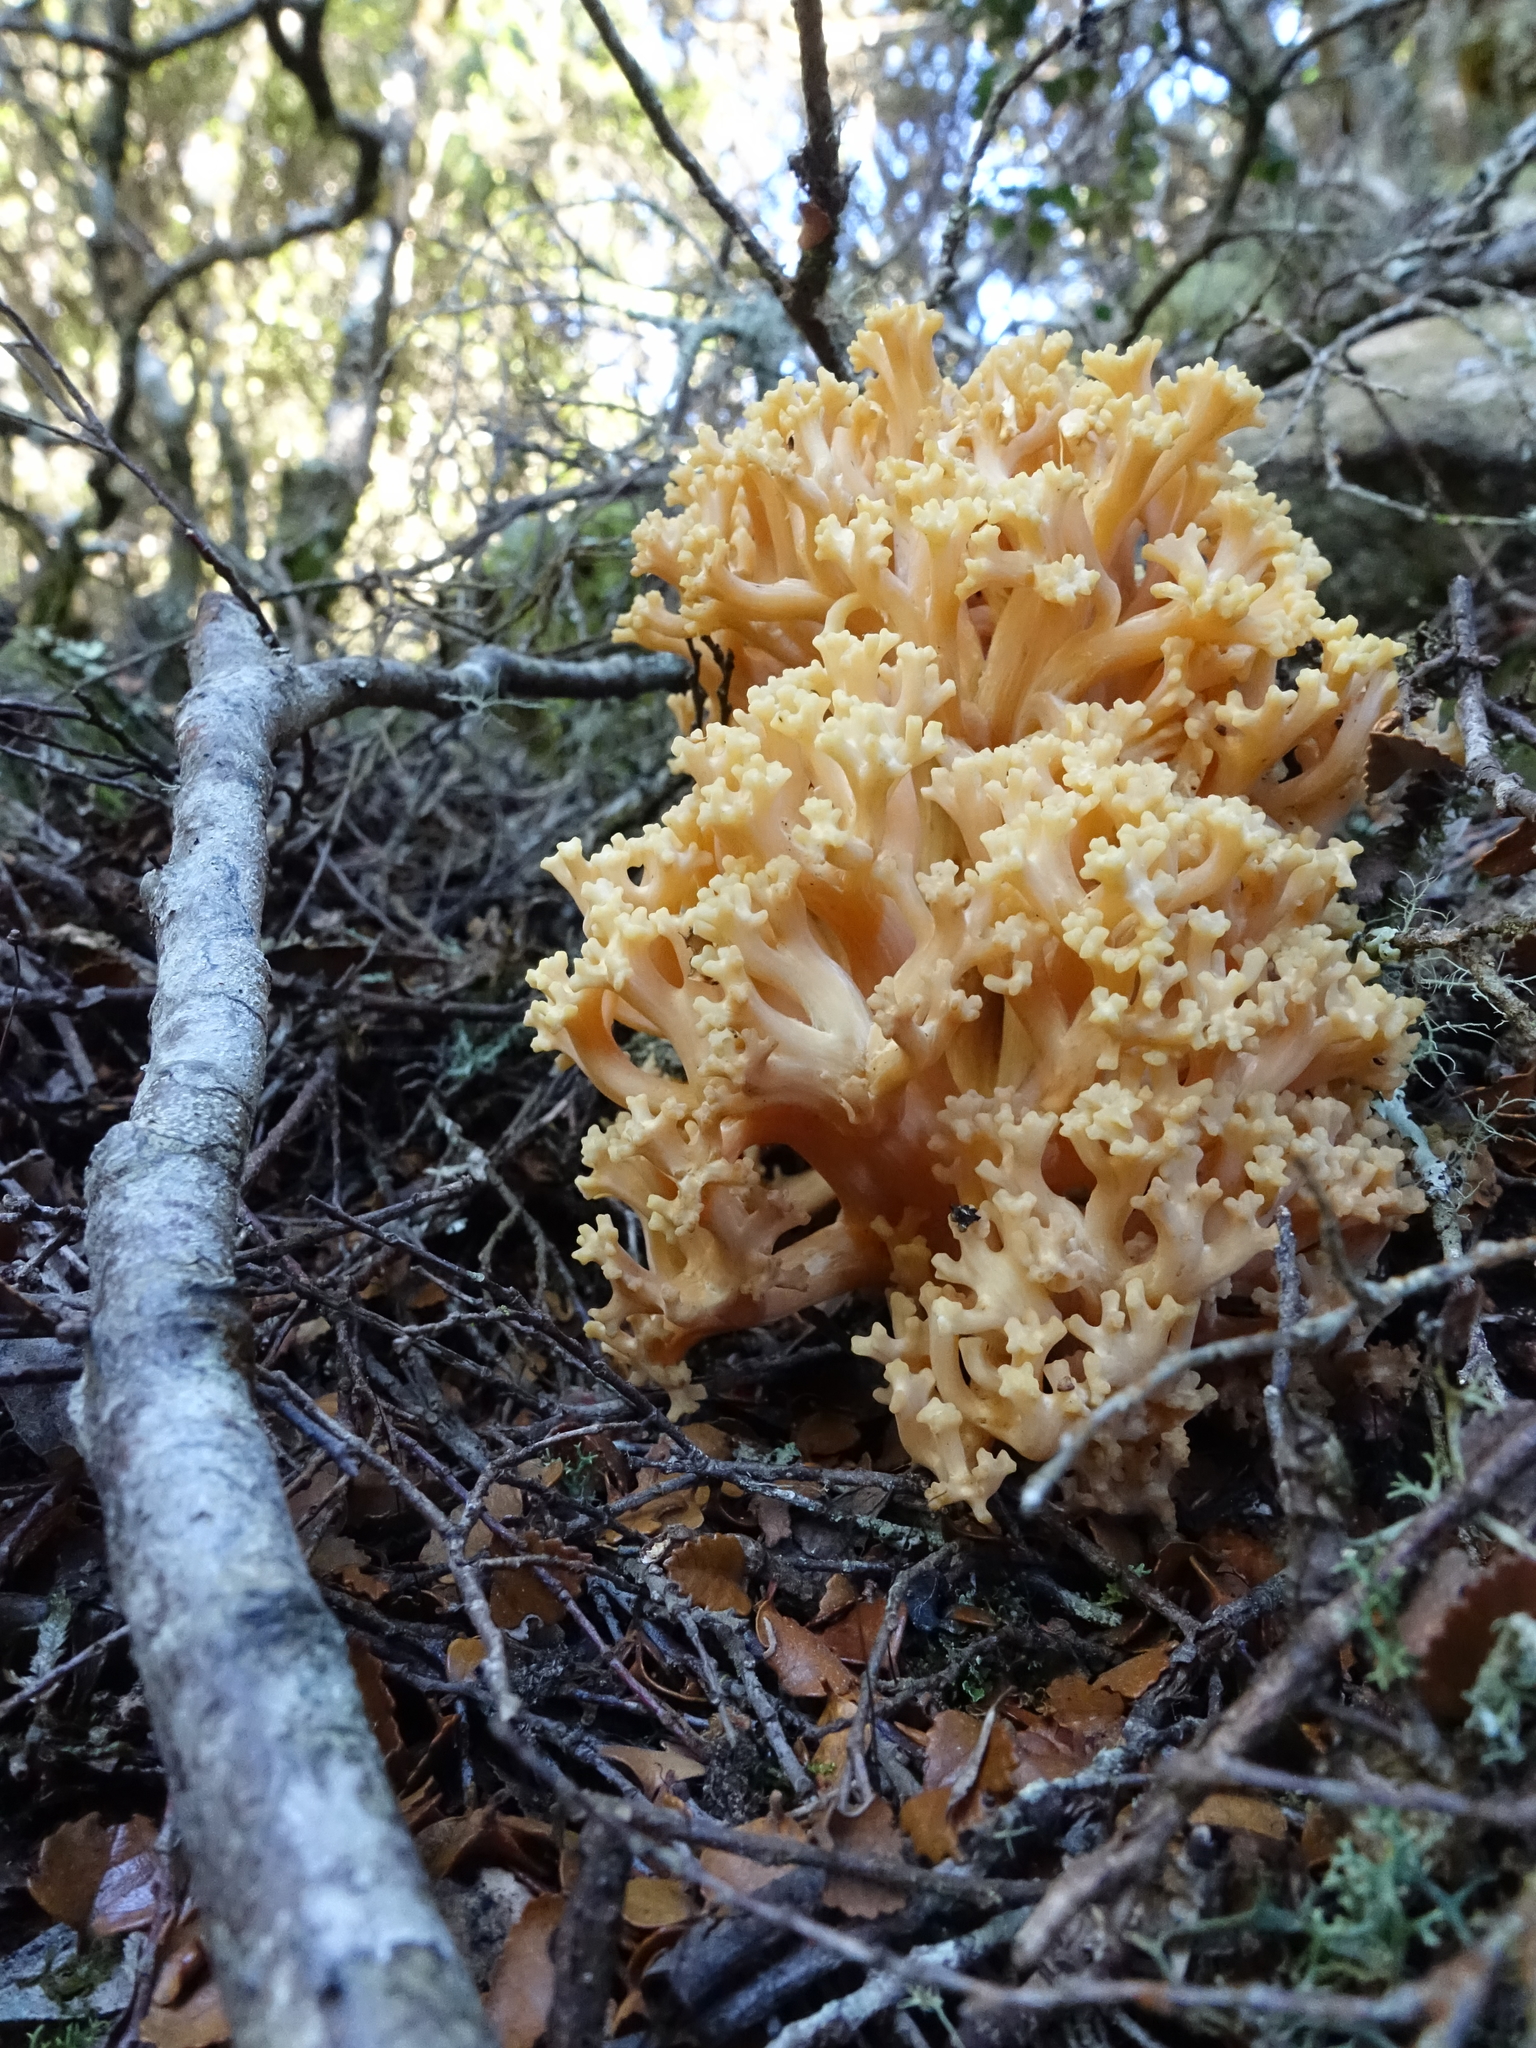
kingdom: Fungi
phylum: Basidiomycota
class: Agaricomycetes
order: Gomphales
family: Gomphaceae
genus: Ramaria
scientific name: Ramaria capitata
